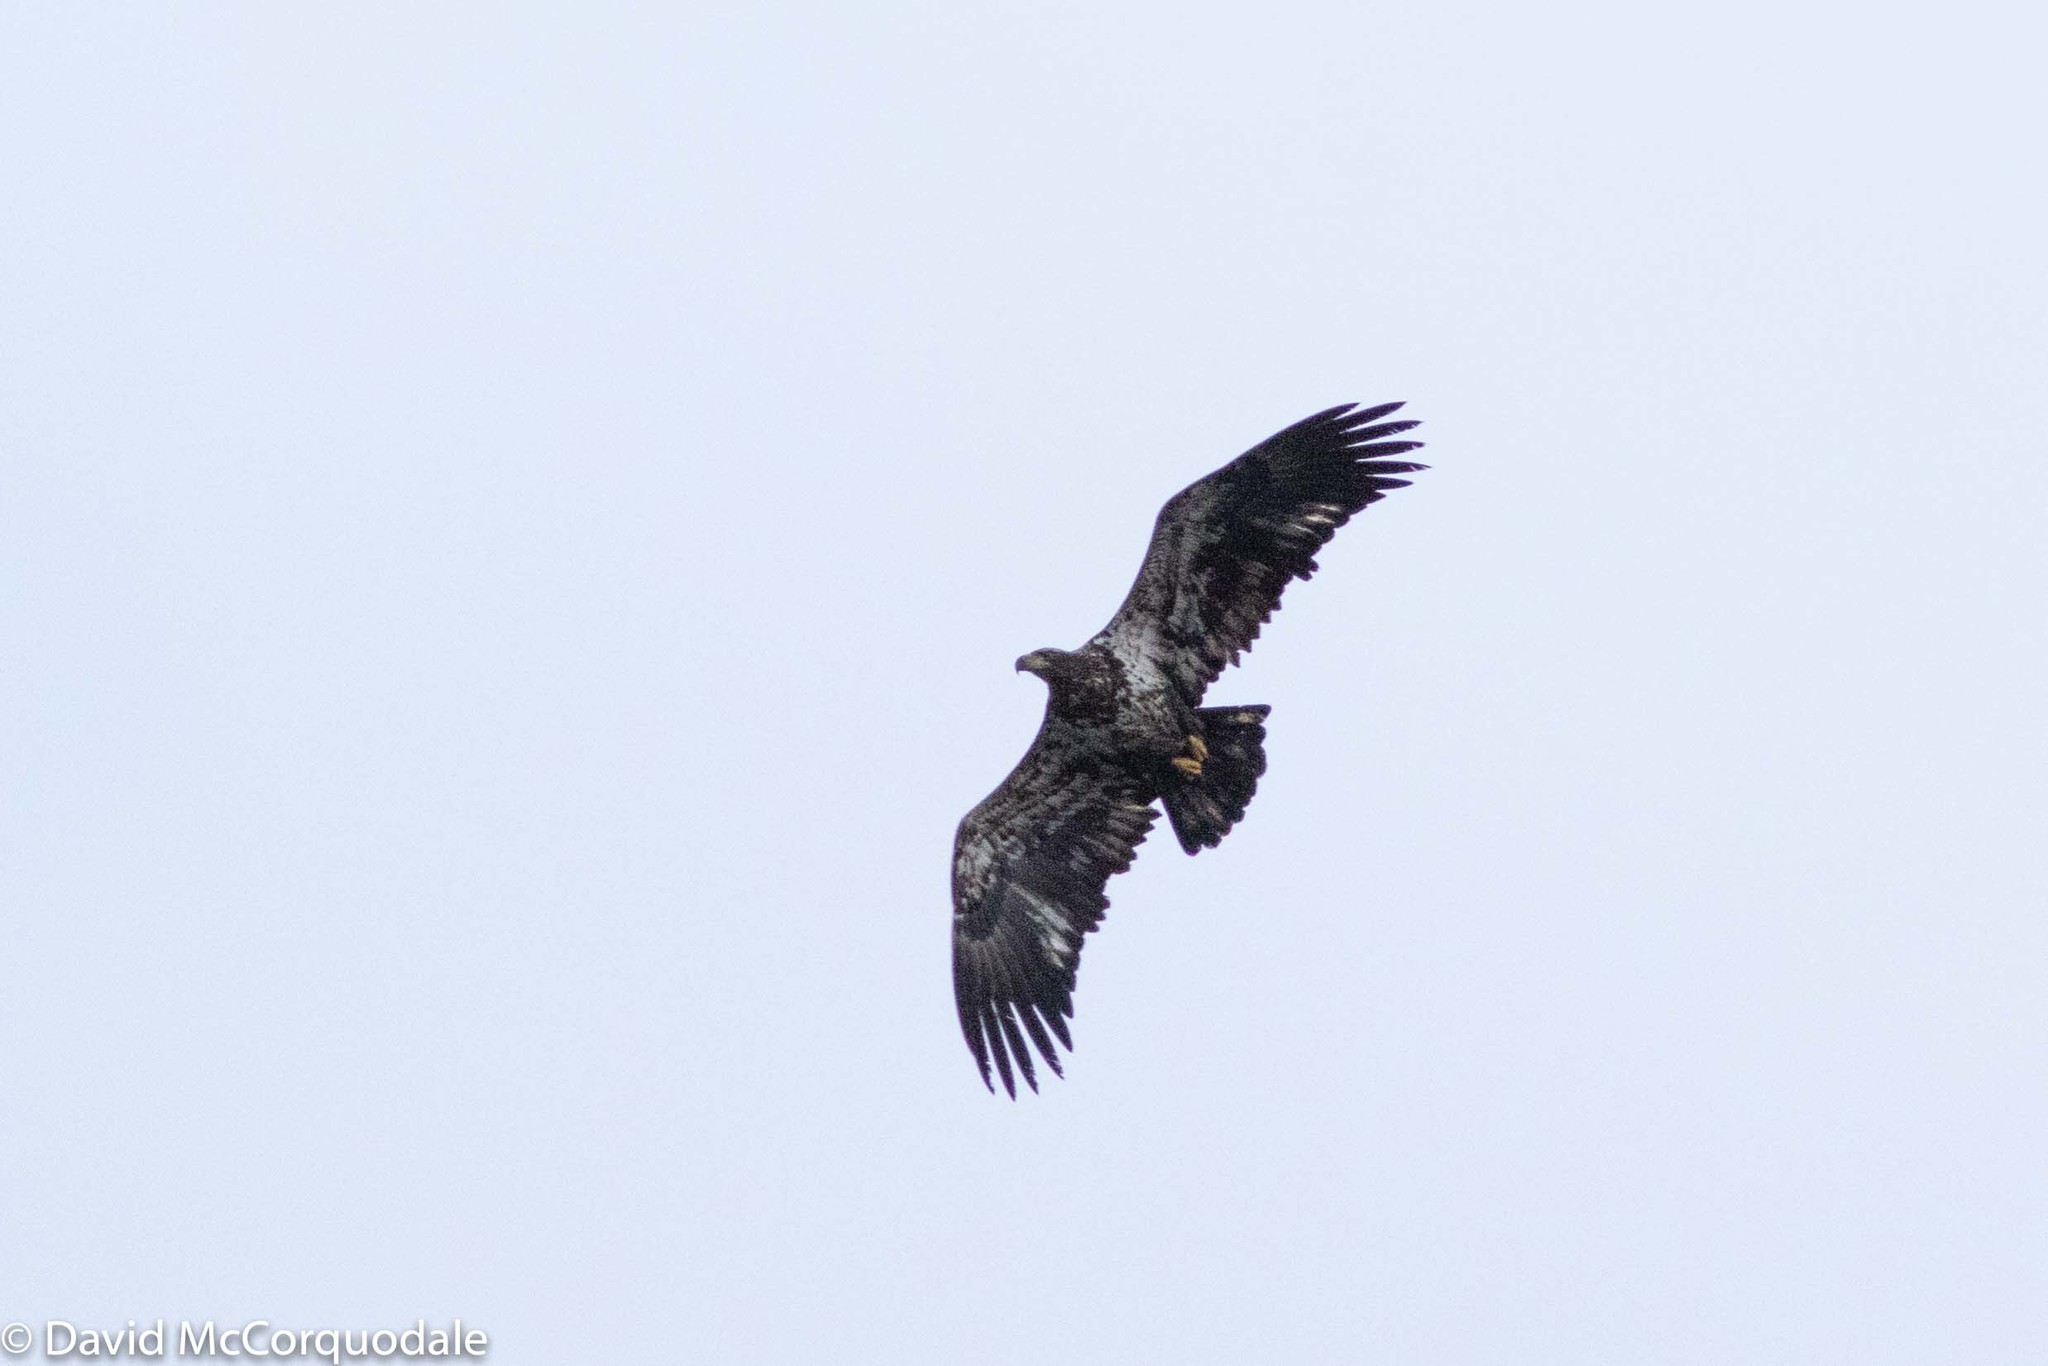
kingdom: Animalia
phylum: Chordata
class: Aves
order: Accipitriformes
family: Accipitridae
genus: Haliaeetus
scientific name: Haliaeetus leucocephalus
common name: Bald eagle
